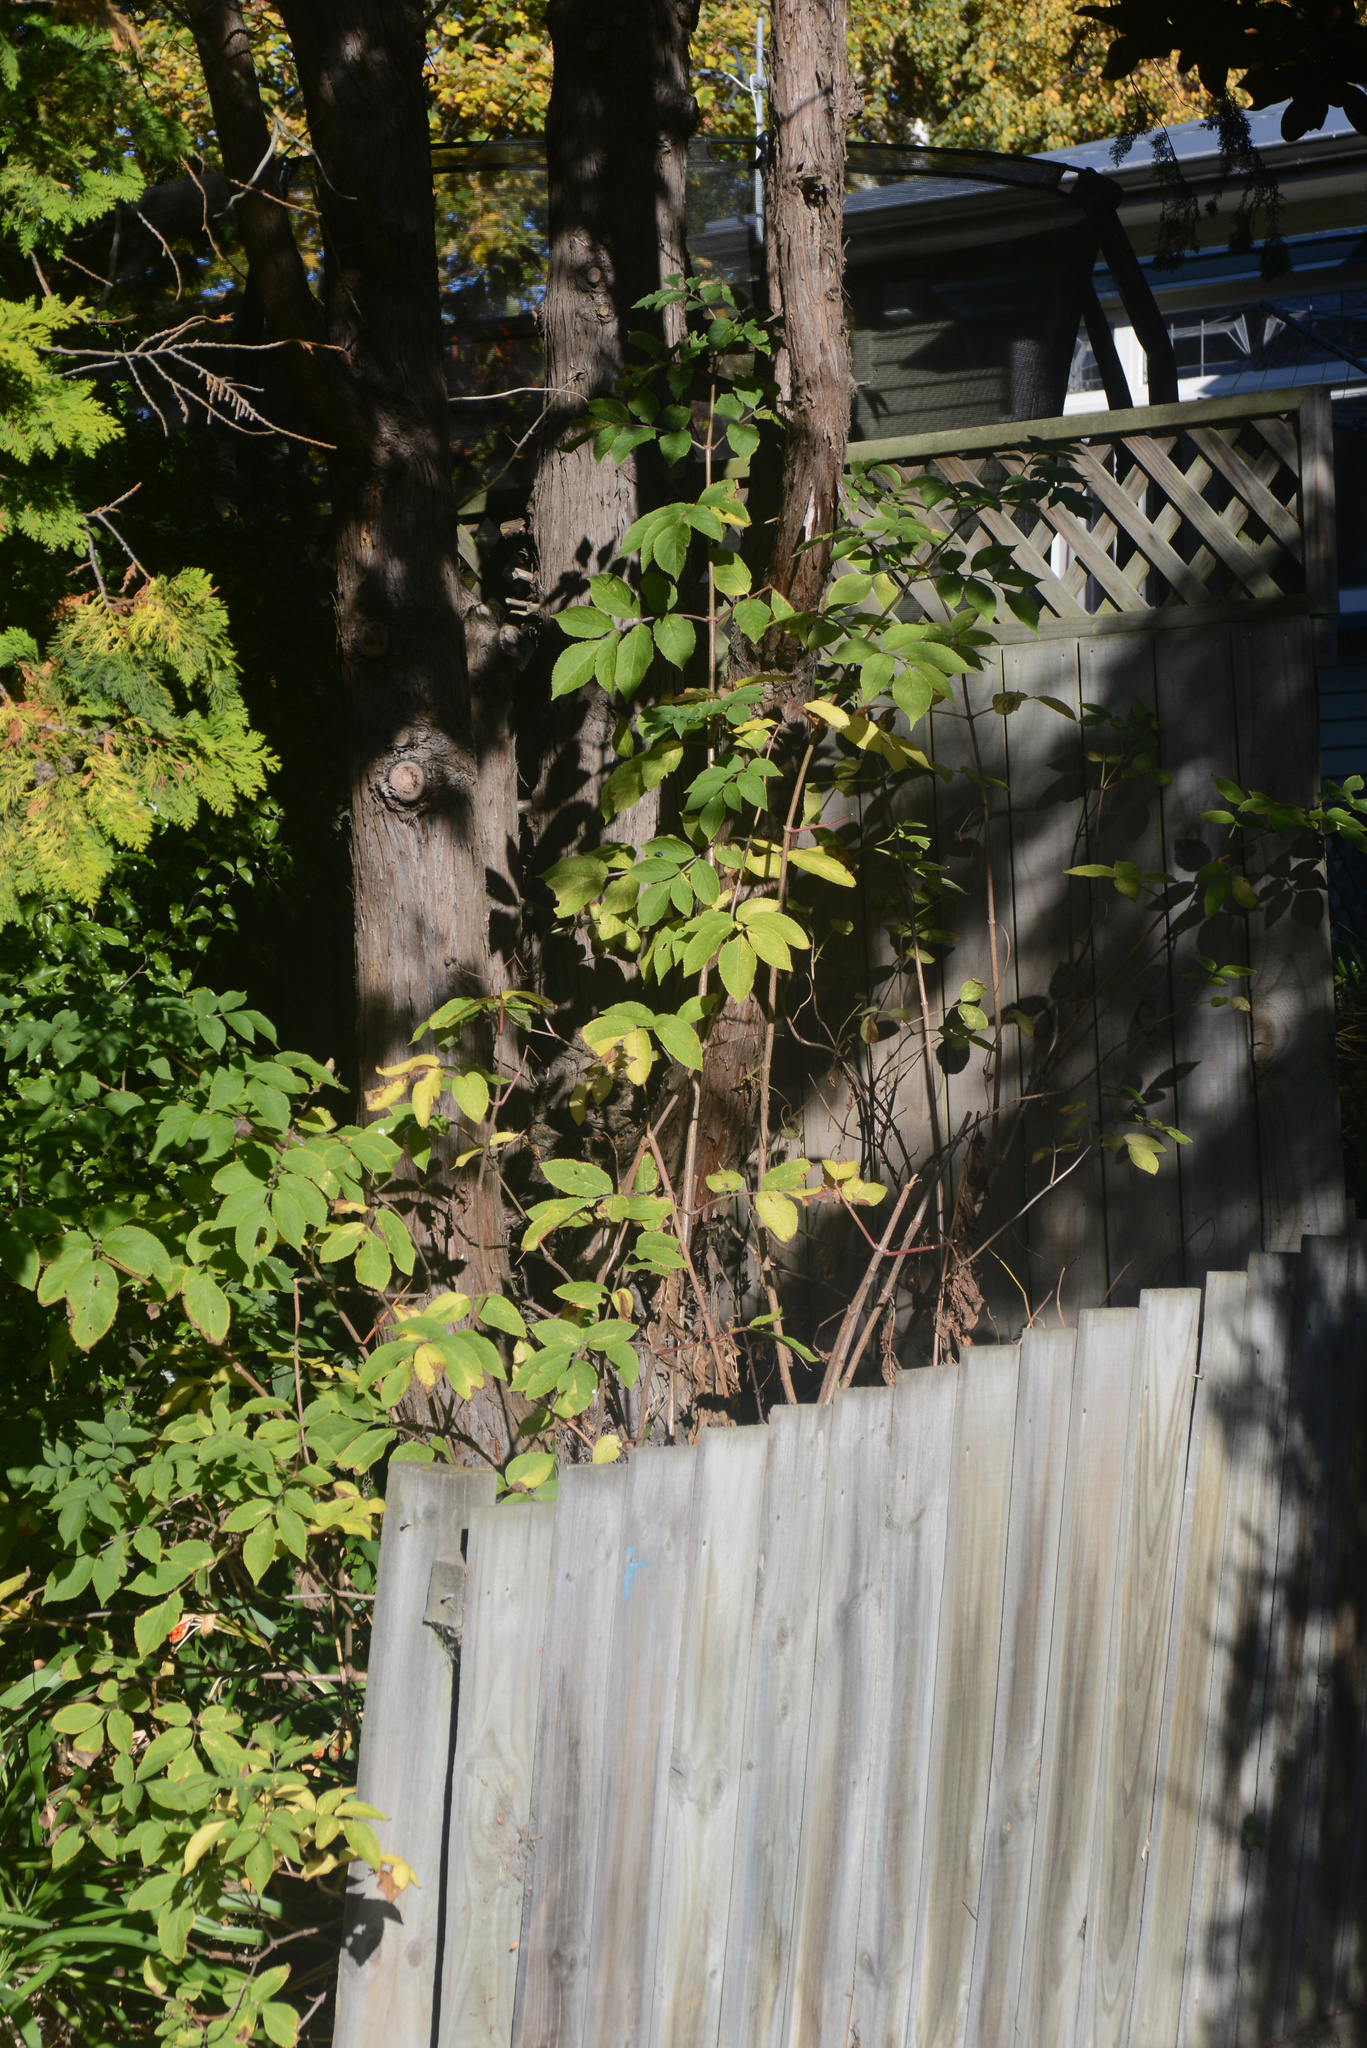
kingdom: Plantae
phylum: Tracheophyta
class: Magnoliopsida
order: Dipsacales
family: Viburnaceae
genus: Sambucus
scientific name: Sambucus nigra
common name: Elder
